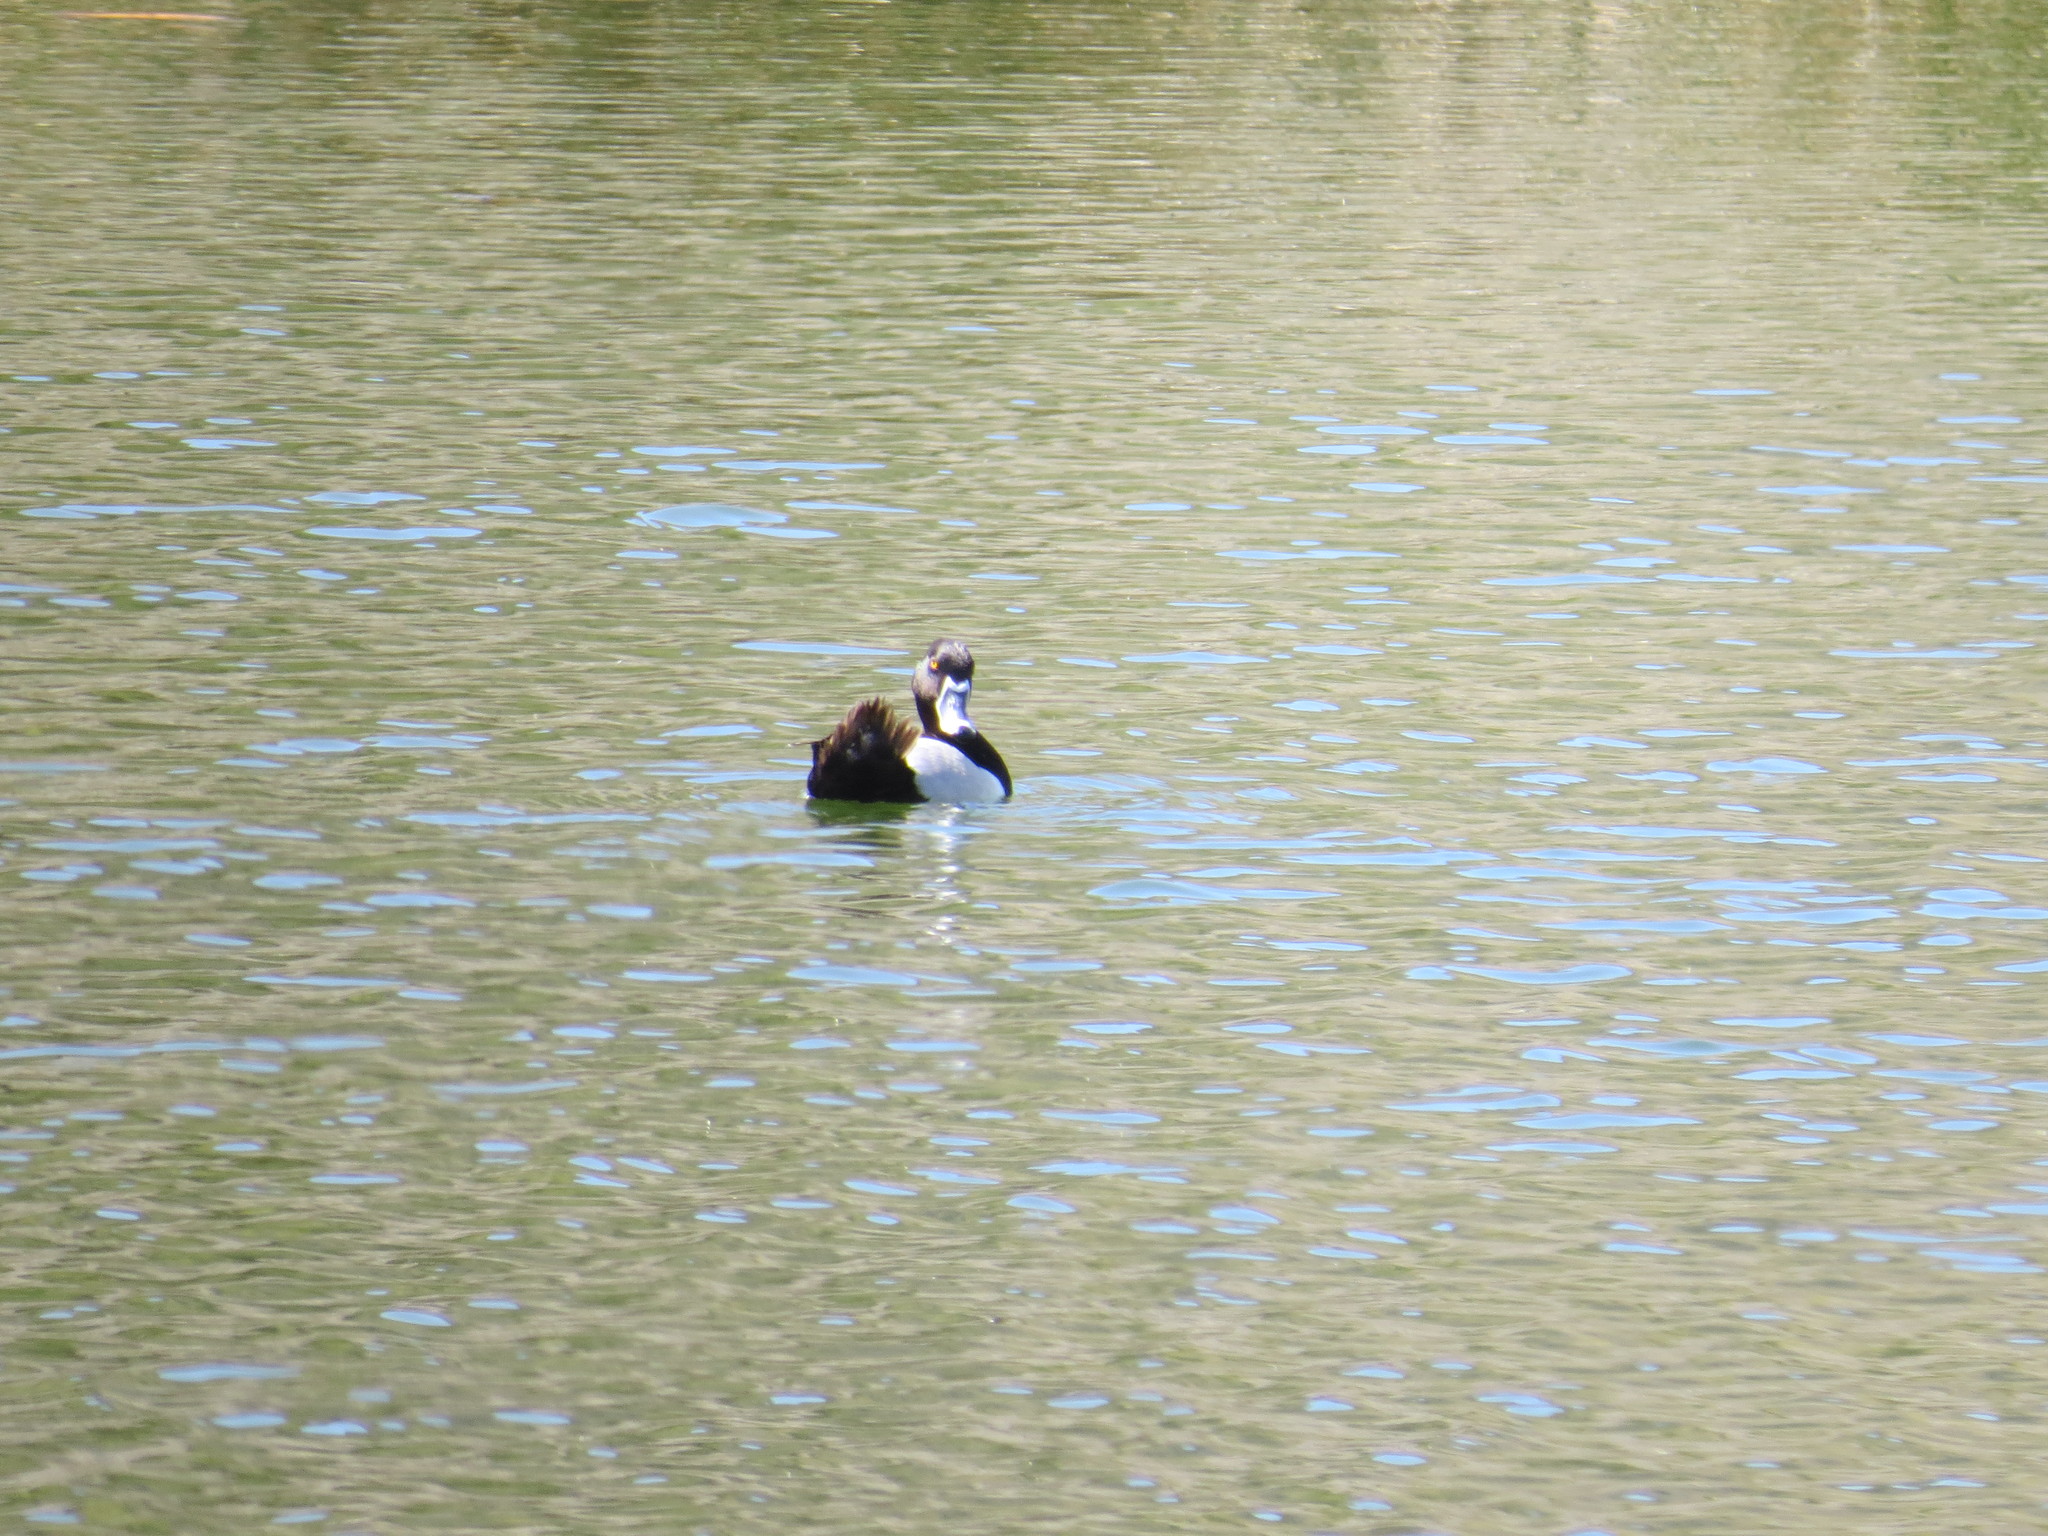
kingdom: Animalia
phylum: Chordata
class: Aves
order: Anseriformes
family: Anatidae
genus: Aythya
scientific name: Aythya collaris
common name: Ring-necked duck
